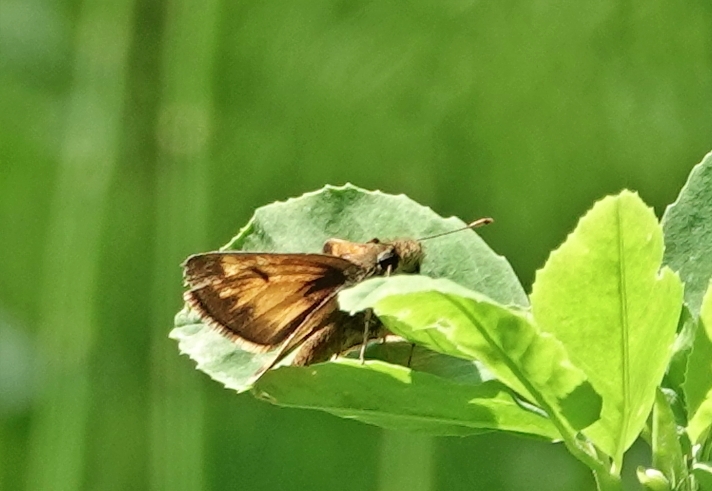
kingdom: Animalia
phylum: Arthropoda
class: Insecta
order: Lepidoptera
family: Hesperiidae
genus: Lon
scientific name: Lon hobomok
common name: Hobomok skipper
